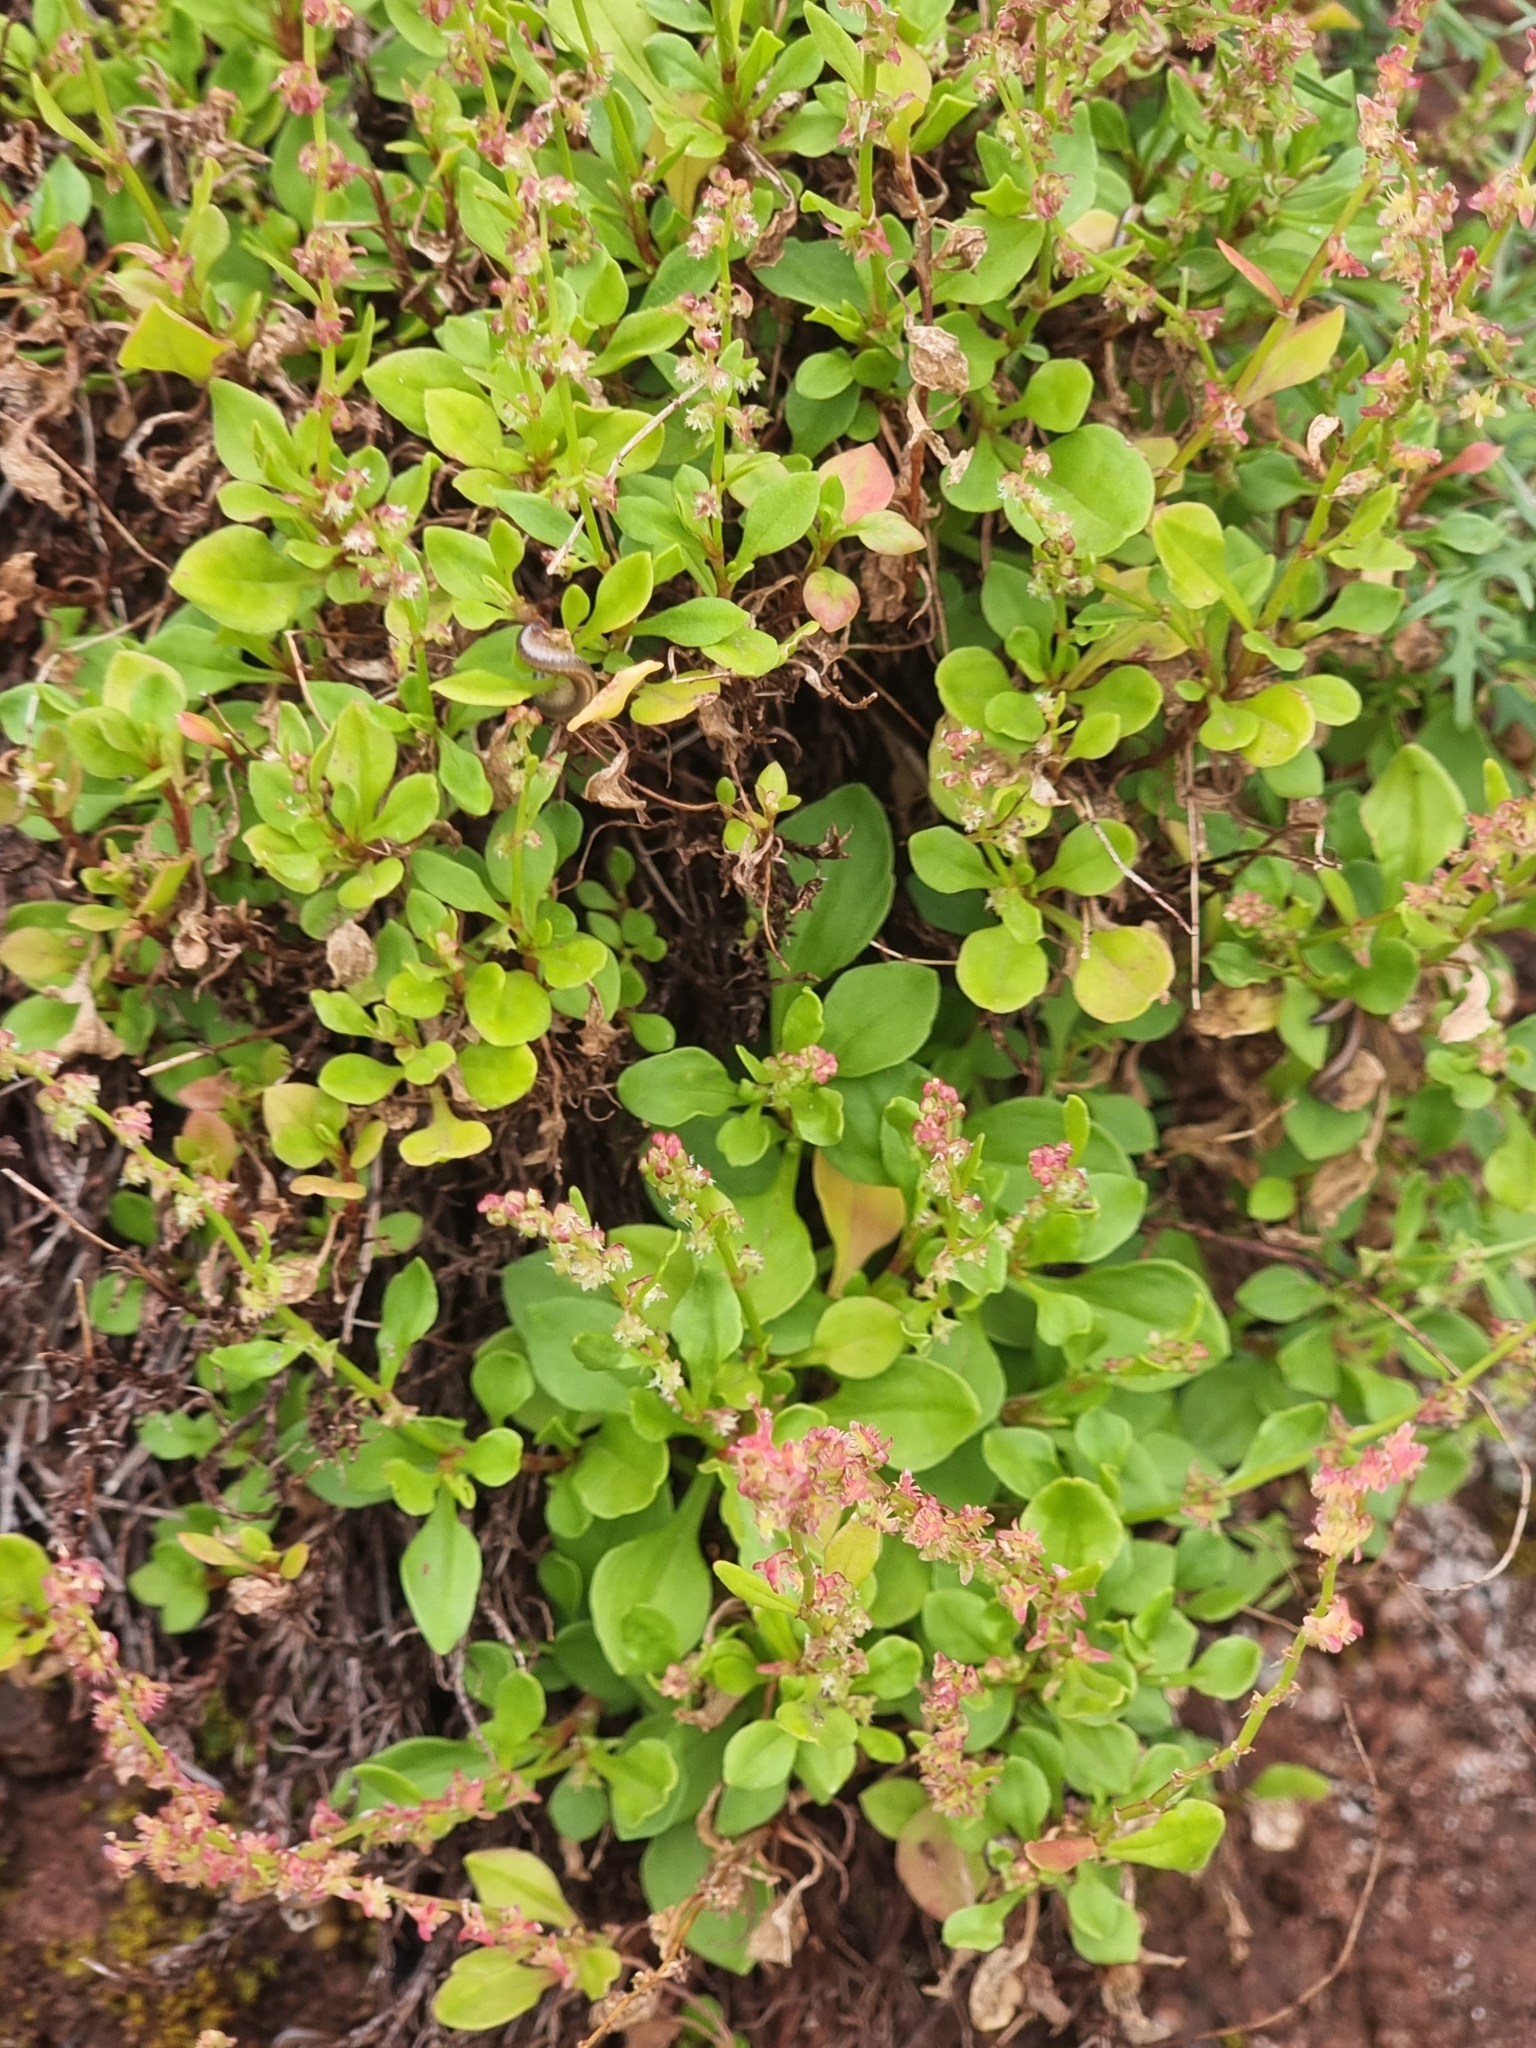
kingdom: Plantae
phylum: Tracheophyta
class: Magnoliopsida
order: Caryophyllales
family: Polygonaceae
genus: Rumex
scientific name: Rumex bucephalophorus
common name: Red dock
